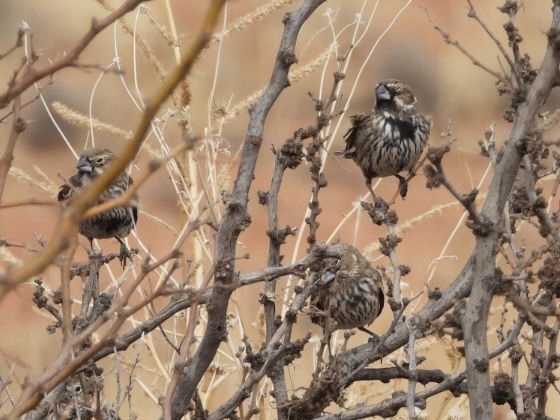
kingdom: Animalia
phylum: Chordata
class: Aves
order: Passeriformes
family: Passerellidae
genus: Calamospiza
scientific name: Calamospiza melanocorys
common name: Lark bunting
